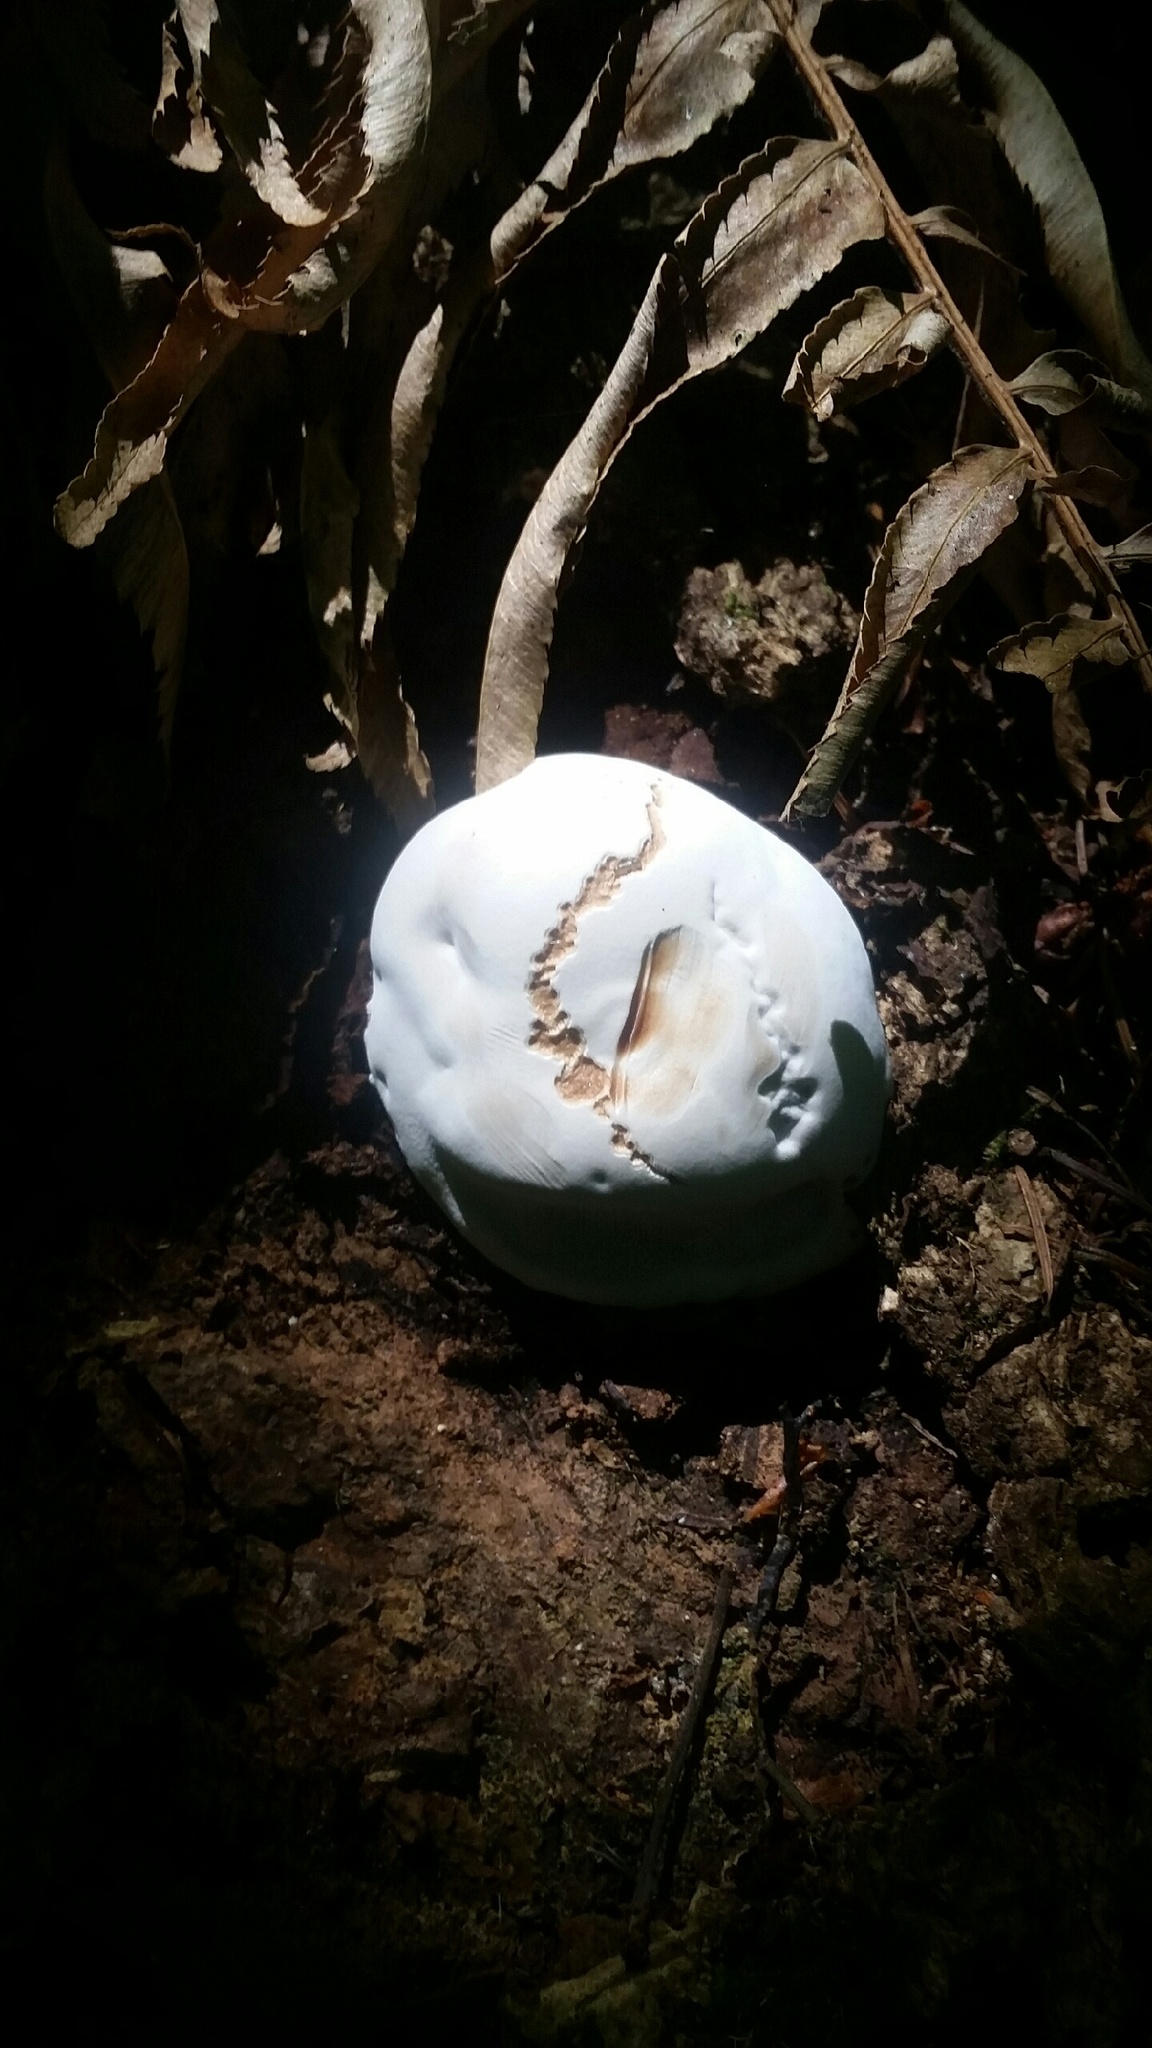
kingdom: Fungi
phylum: Basidiomycota
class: Agaricomycetes
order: Polyporales
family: Polyporaceae
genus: Ganoderma
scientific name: Ganoderma brownii
